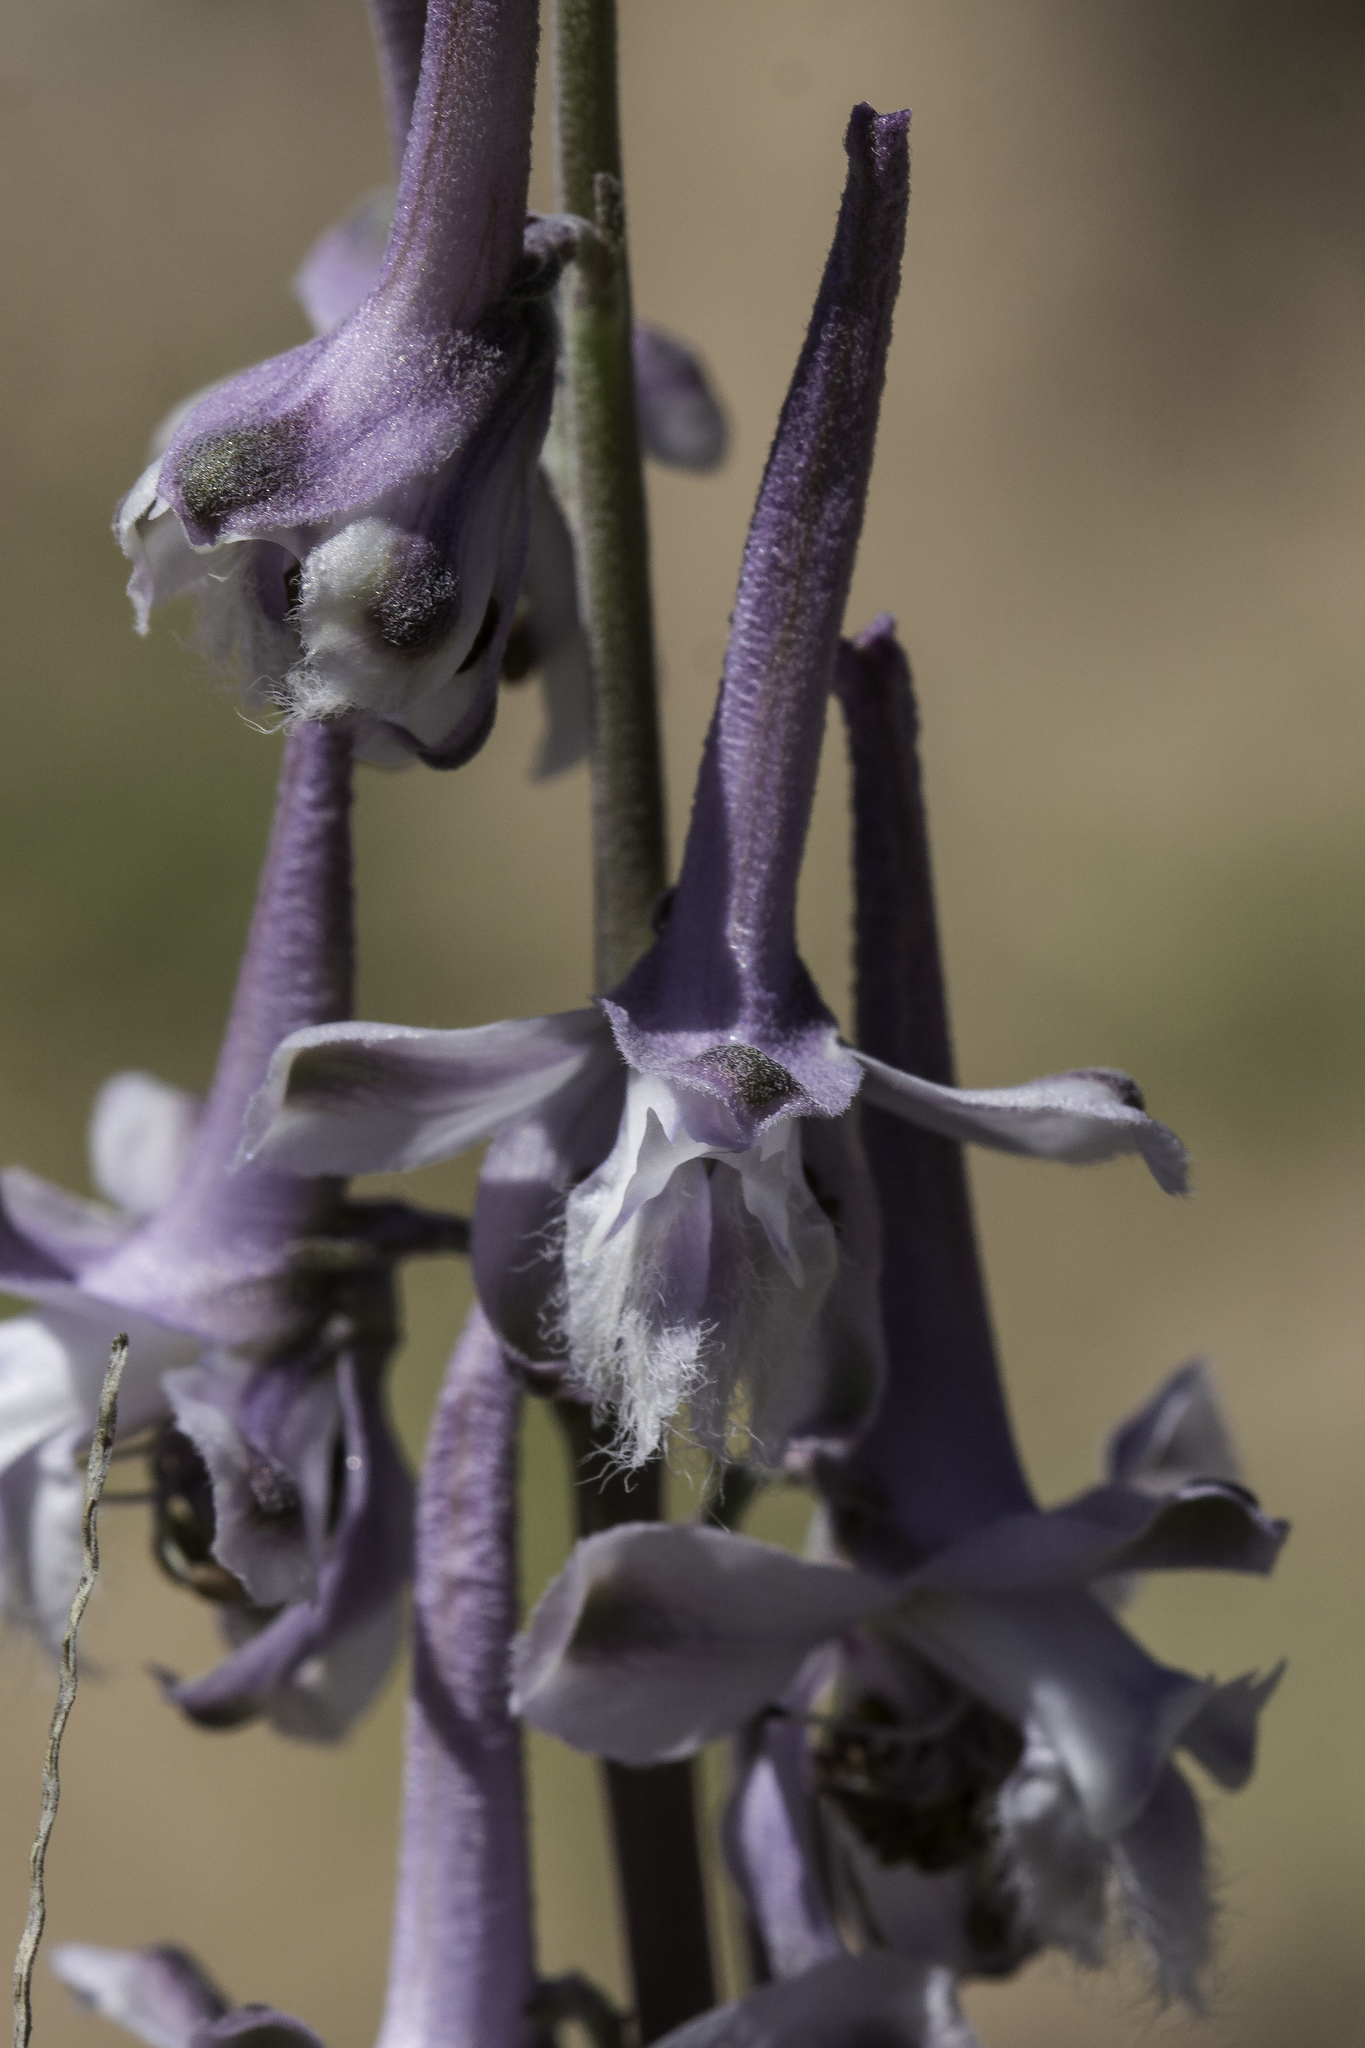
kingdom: Plantae
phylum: Tracheophyta
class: Magnoliopsida
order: Ranunculales
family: Ranunculaceae
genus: Delphinium
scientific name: Delphinium wootonii
